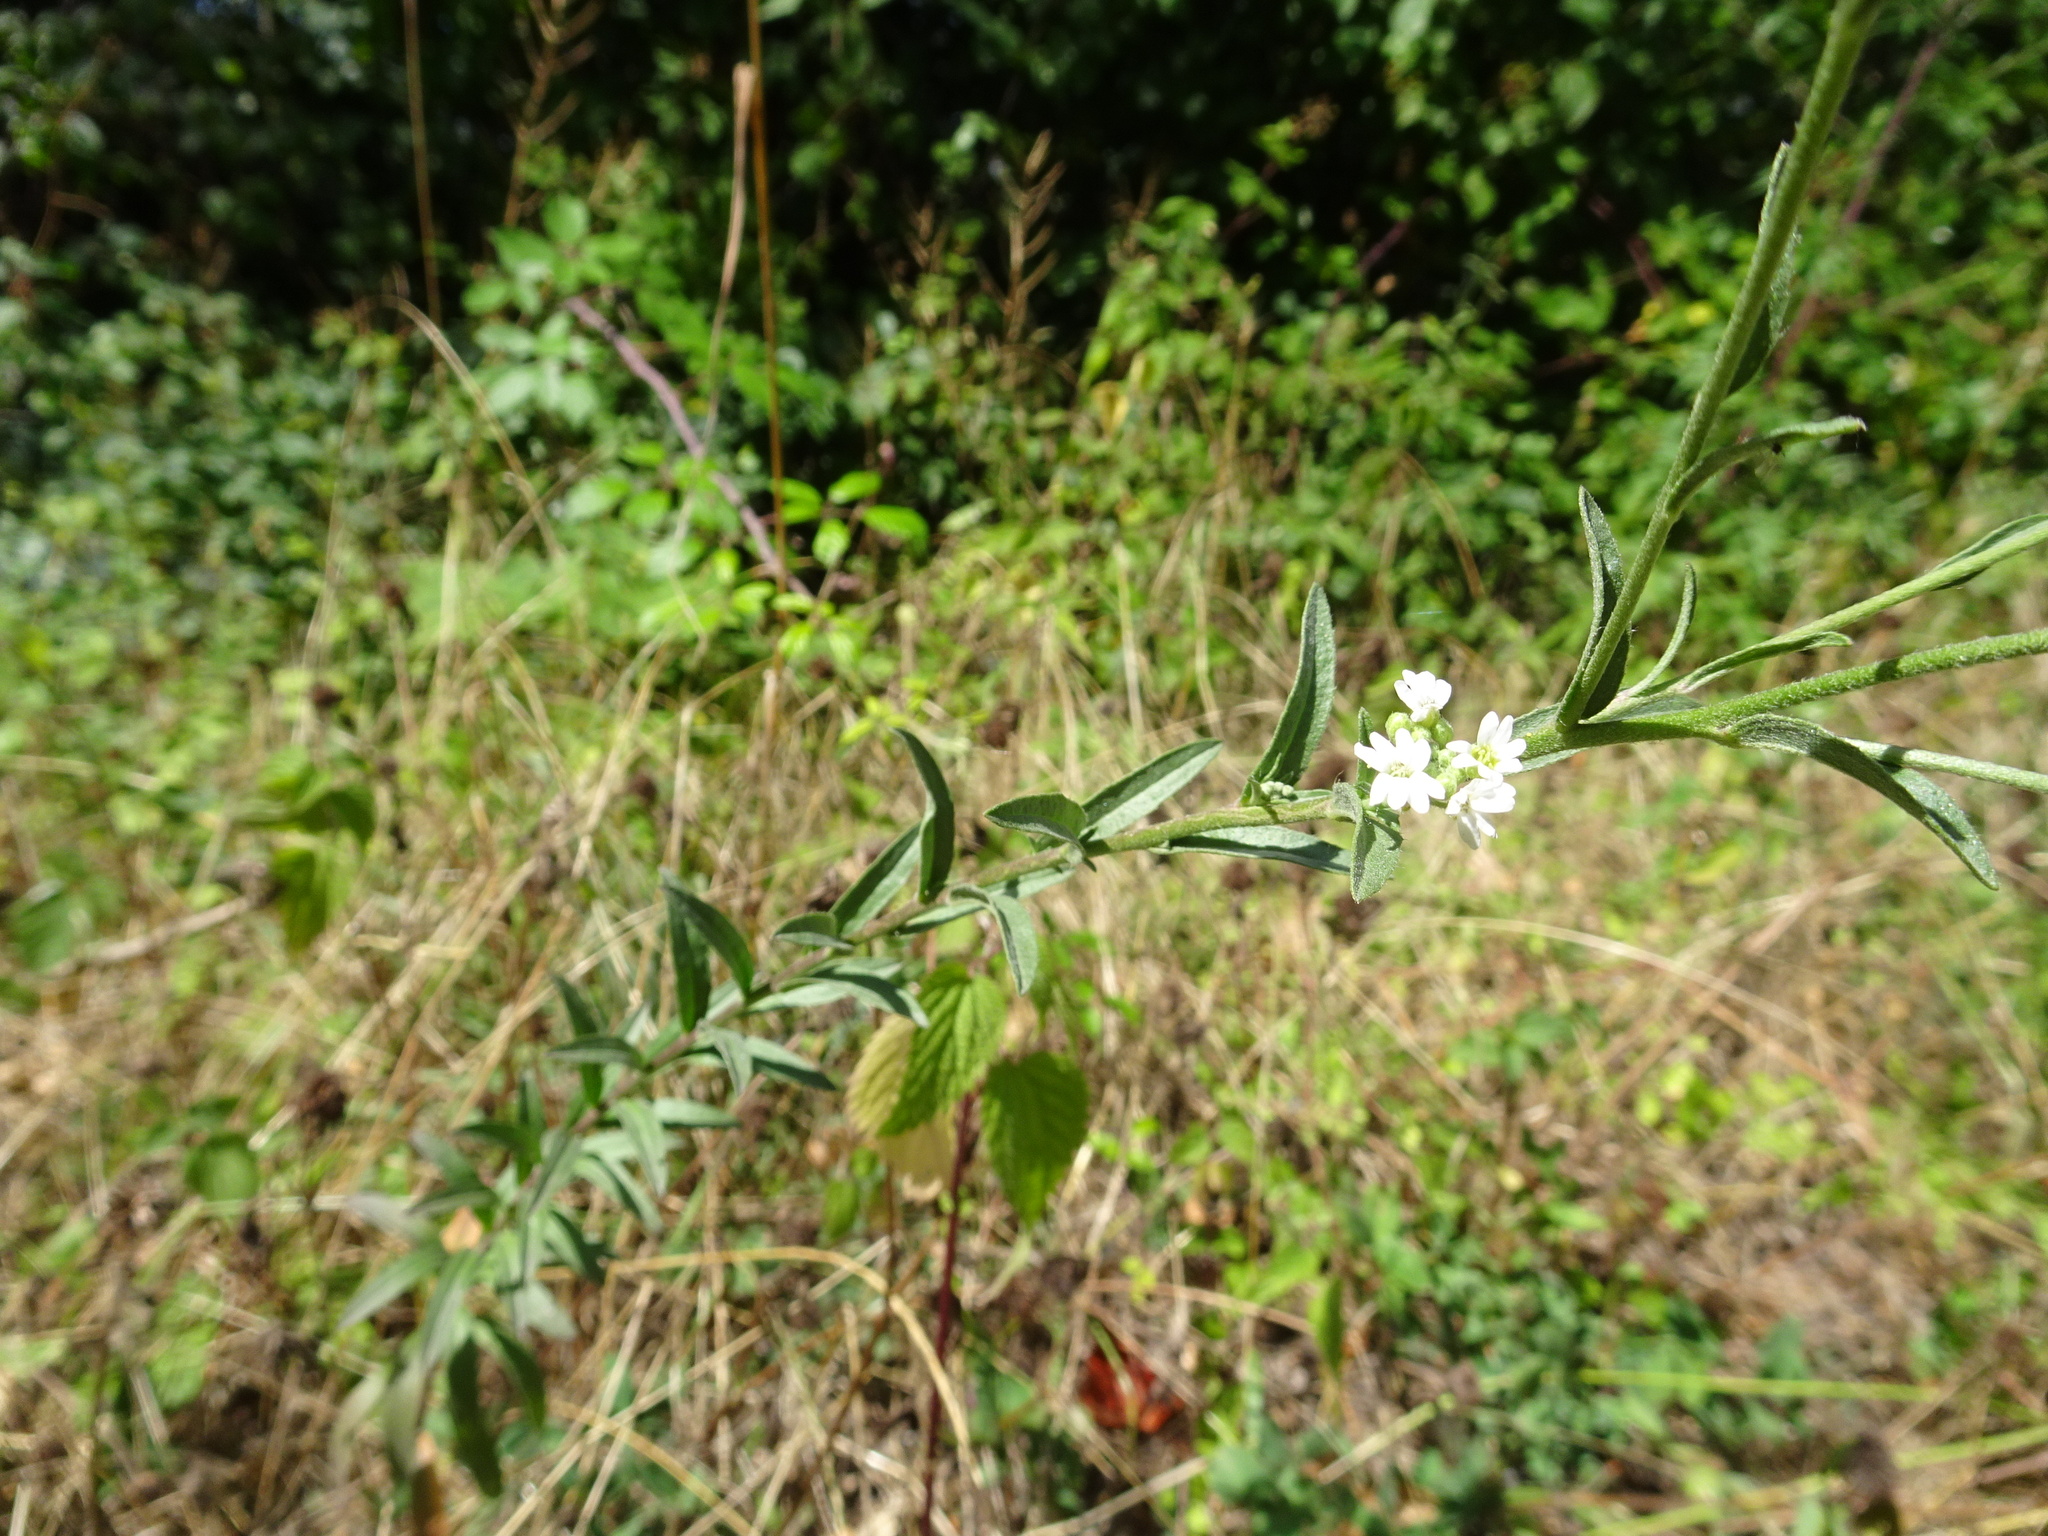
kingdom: Plantae
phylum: Tracheophyta
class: Magnoliopsida
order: Brassicales
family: Brassicaceae
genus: Berteroa
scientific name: Berteroa incana
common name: Hoary alison
